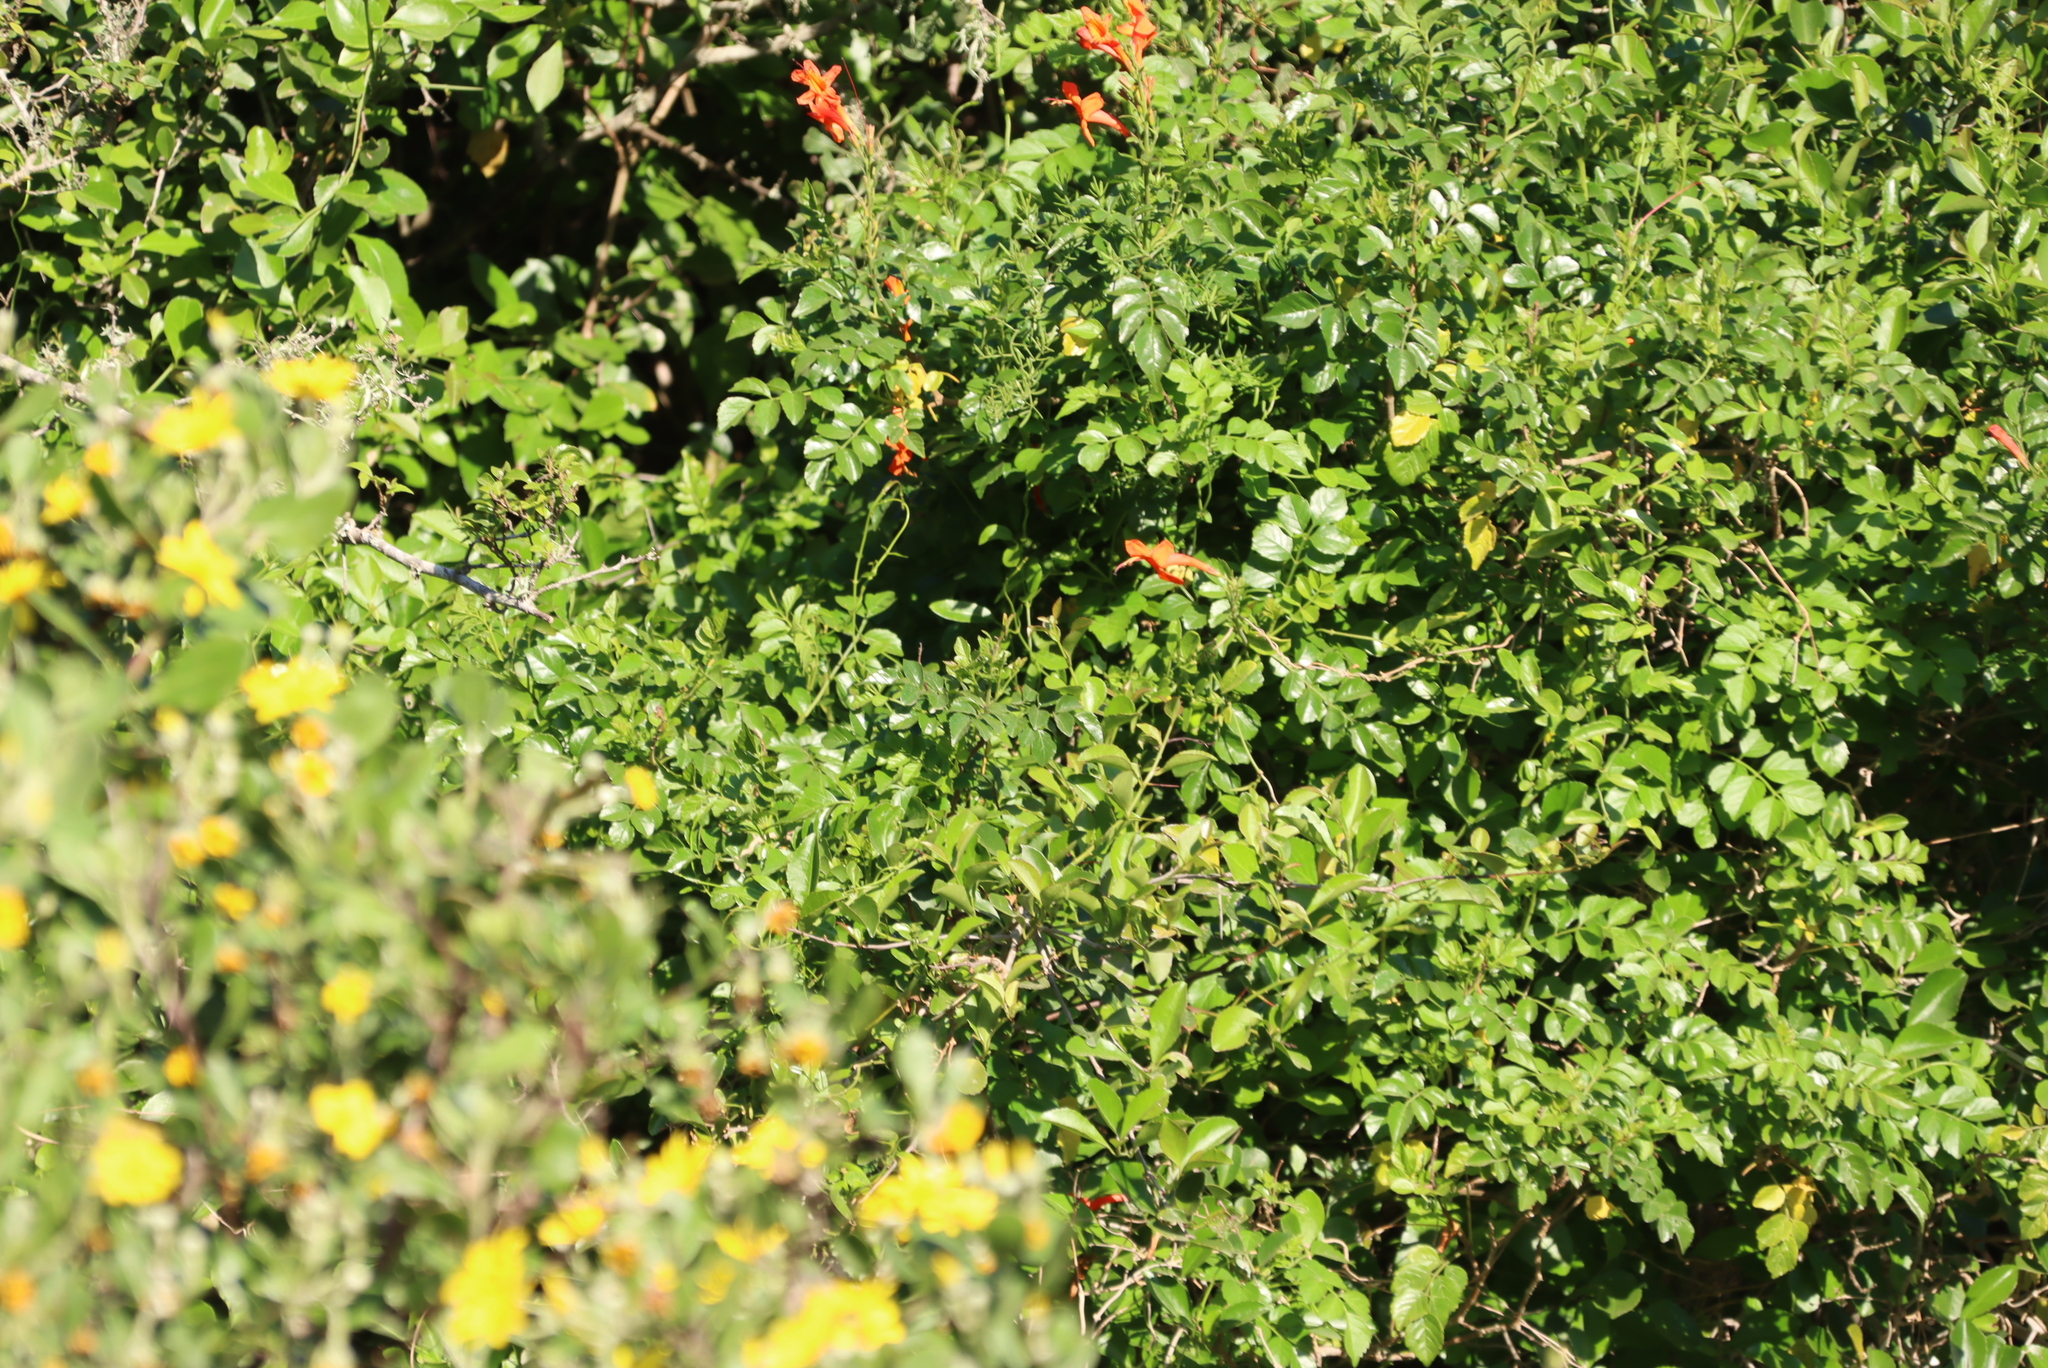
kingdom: Plantae
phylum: Tracheophyta
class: Magnoliopsida
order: Lamiales
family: Bignoniaceae
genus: Tecomaria
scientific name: Tecomaria capensis
